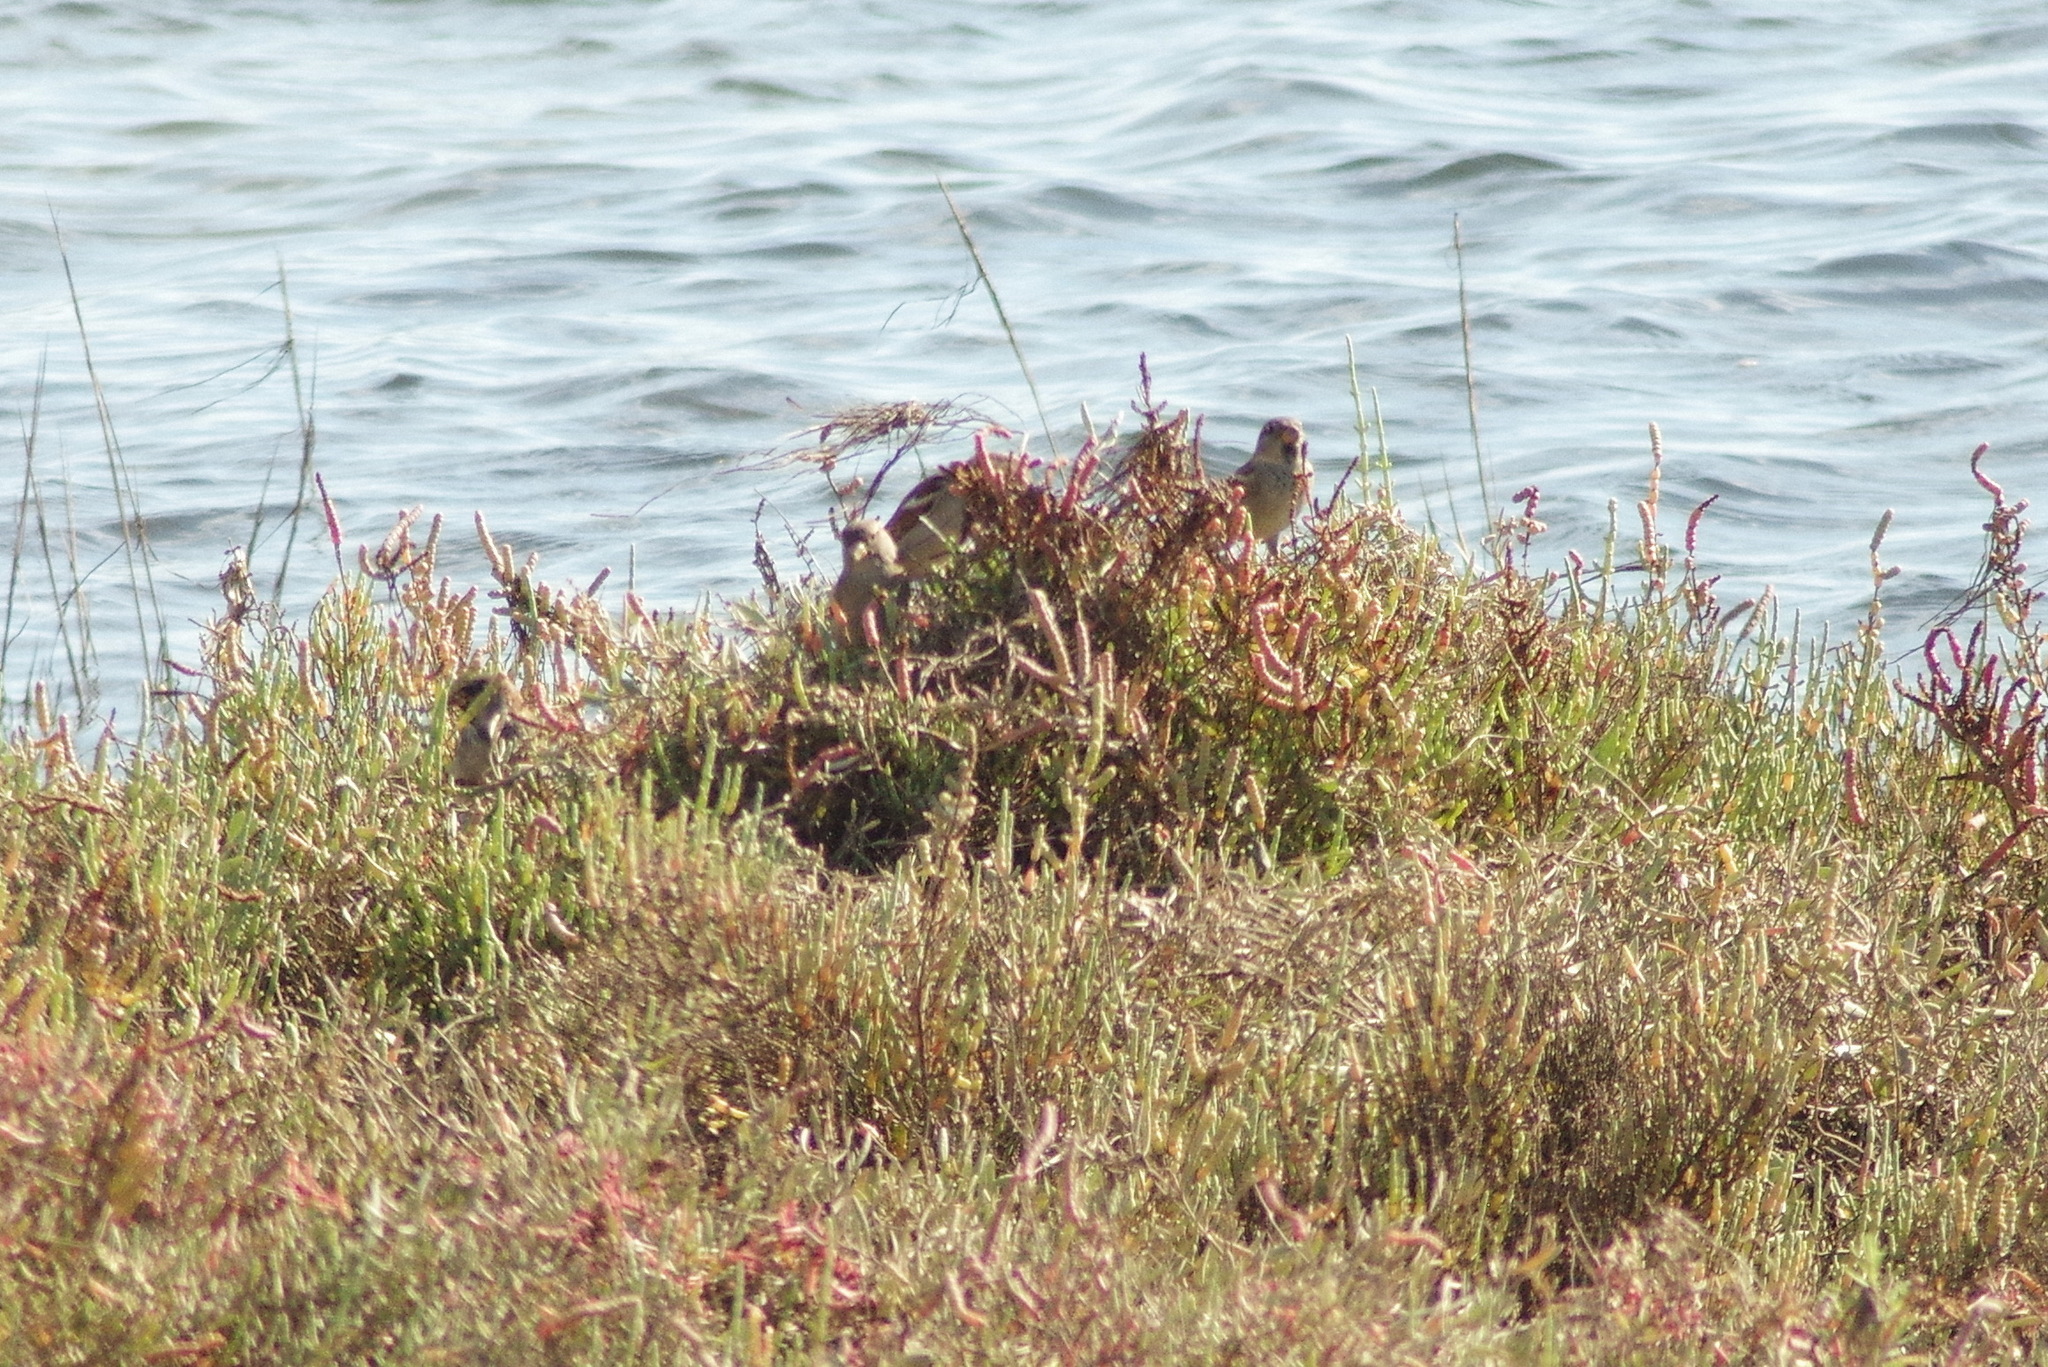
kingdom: Animalia
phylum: Chordata
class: Aves
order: Passeriformes
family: Passeridae
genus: Passer
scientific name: Passer domesticus
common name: House sparrow
